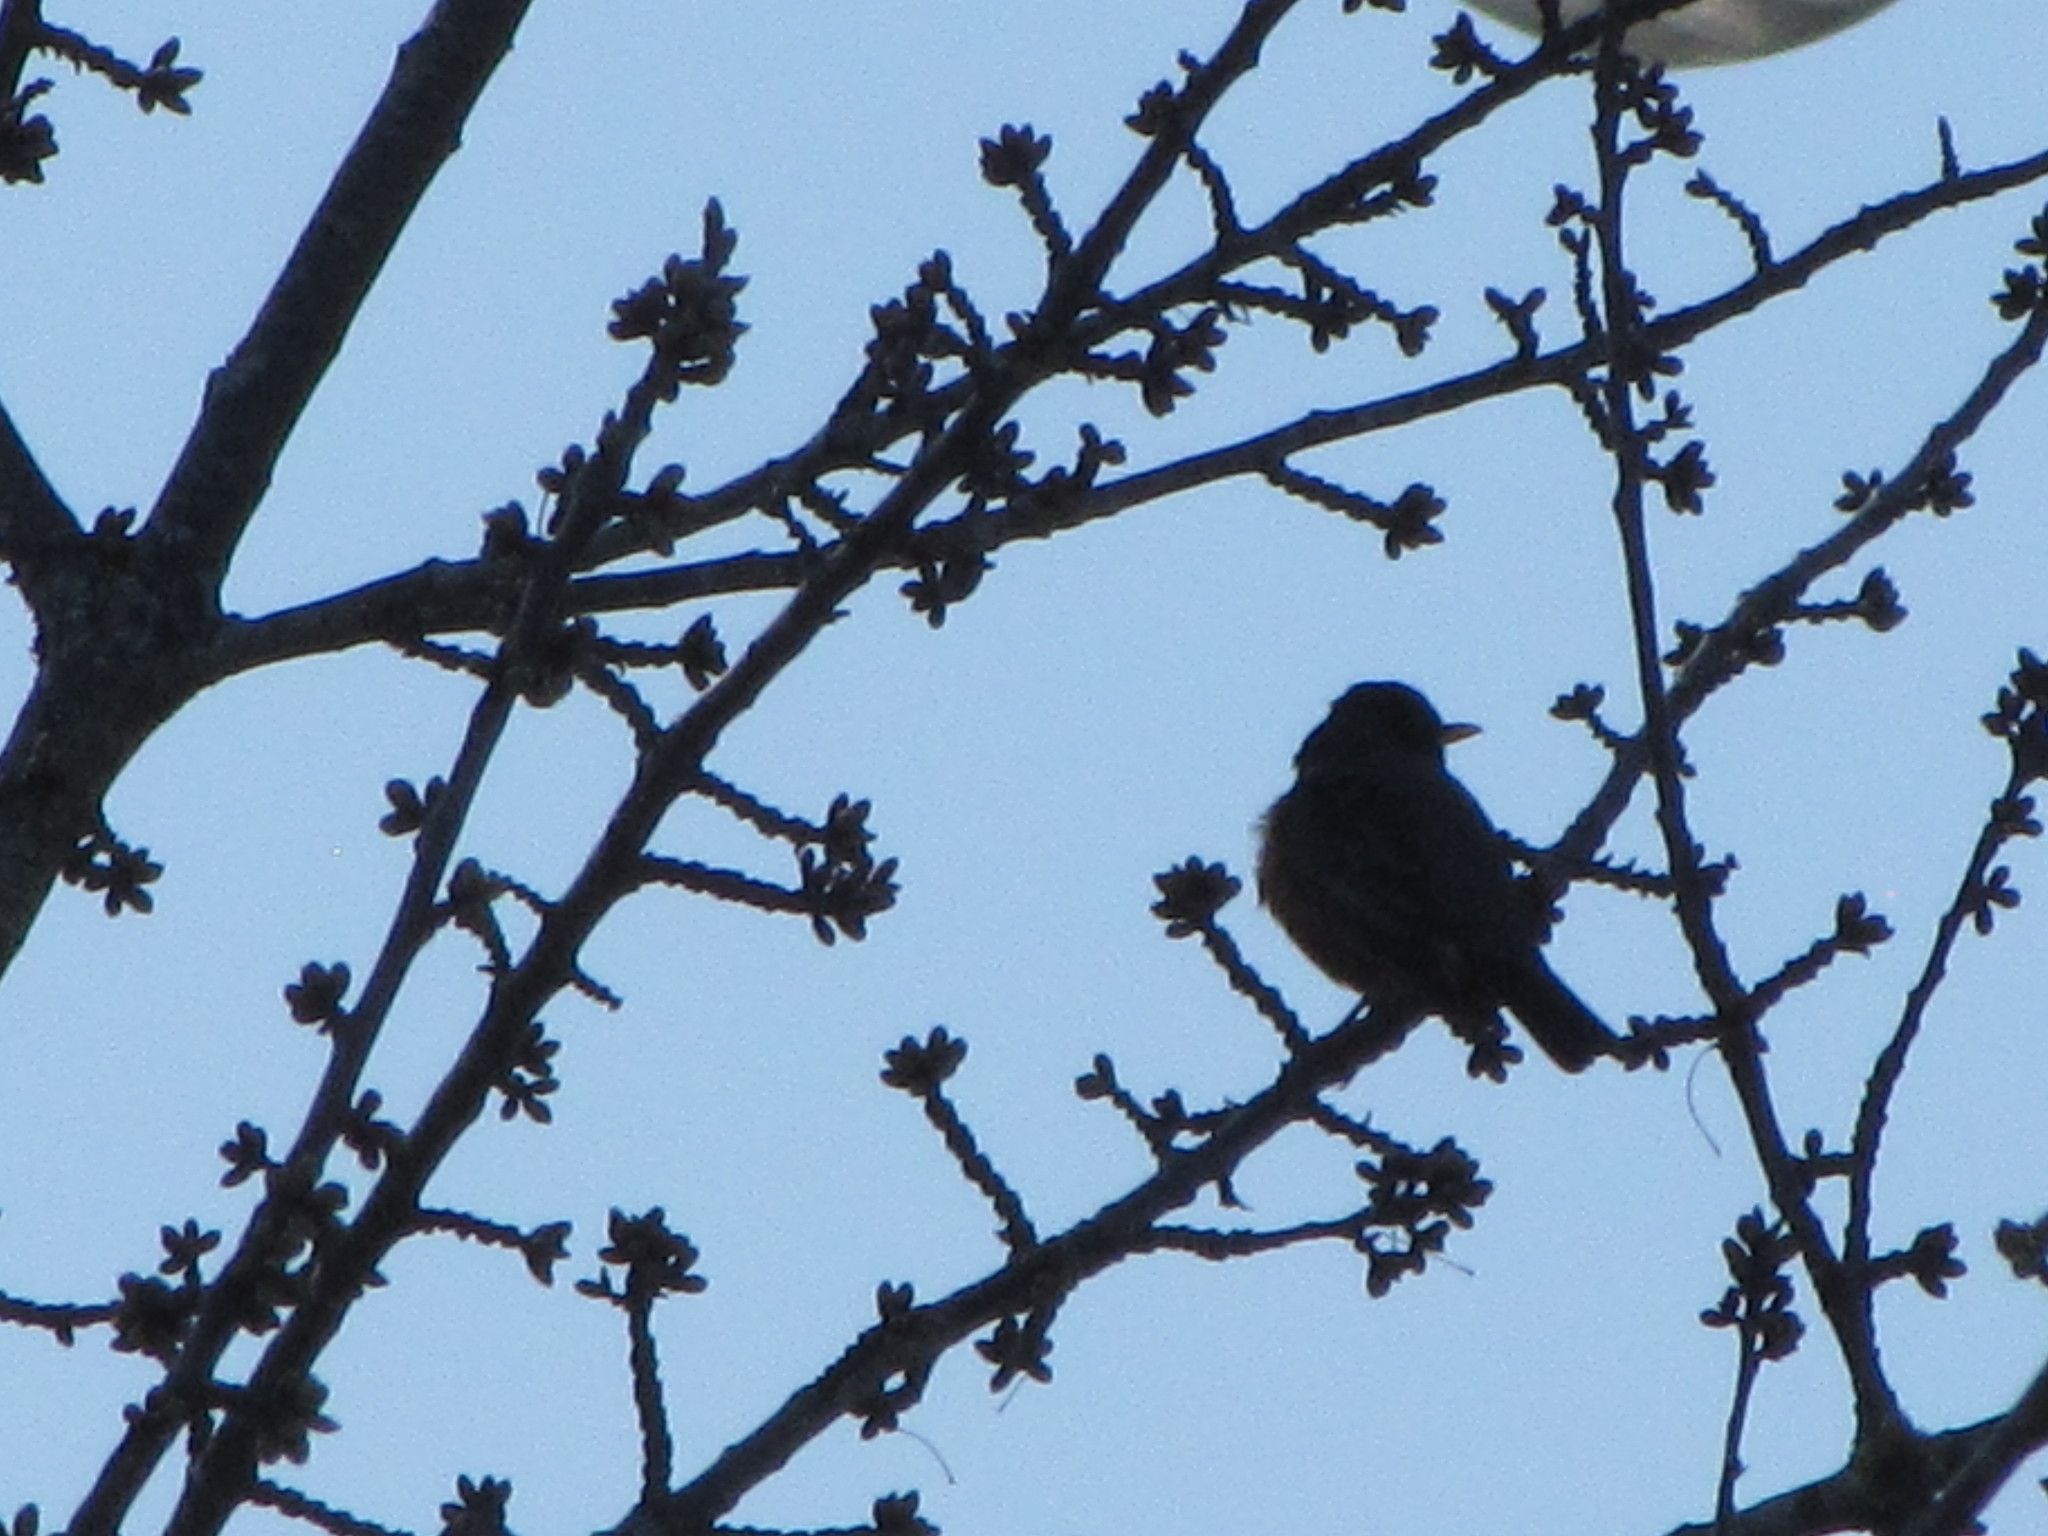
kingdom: Animalia
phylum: Chordata
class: Aves
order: Passeriformes
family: Turdidae
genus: Turdus
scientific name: Turdus migratorius
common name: American robin
